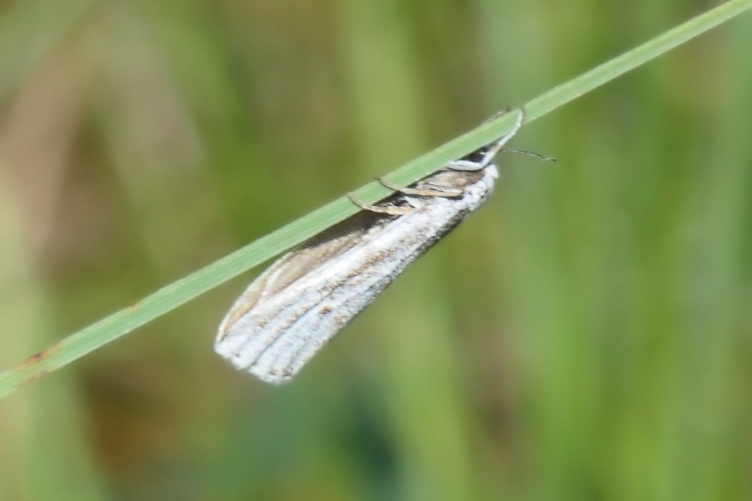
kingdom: Animalia
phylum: Arthropoda
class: Insecta
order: Lepidoptera
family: Erebidae
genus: Coscinia
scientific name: Coscinia cribraria
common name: Speckled footman
